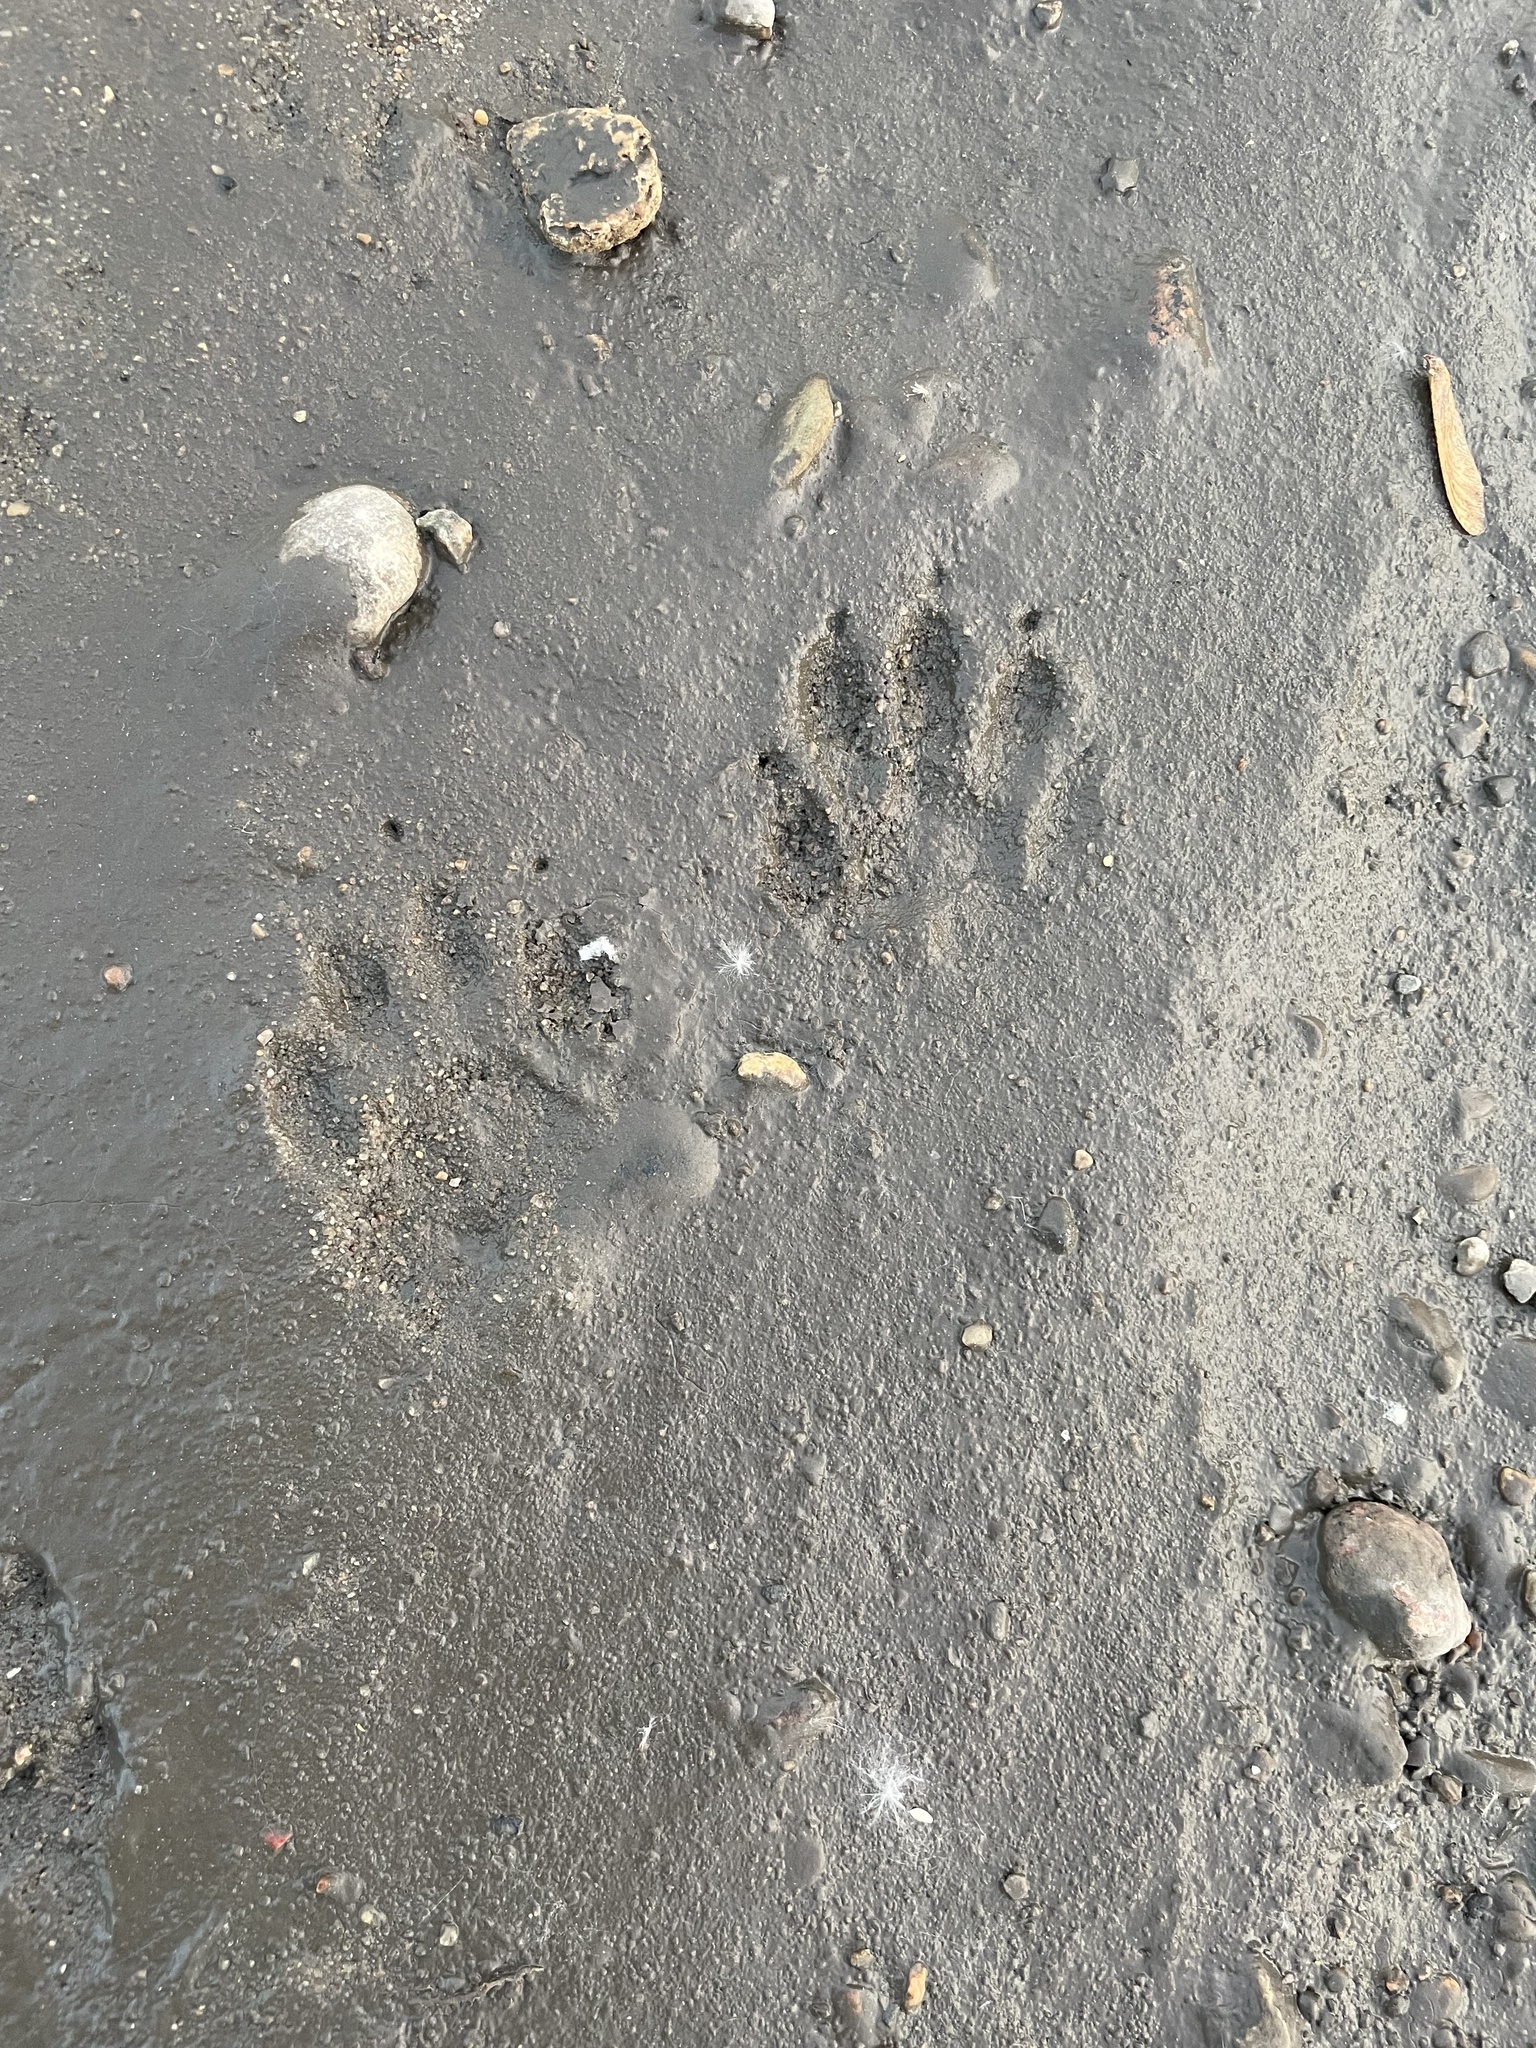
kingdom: Animalia
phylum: Chordata
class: Mammalia
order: Carnivora
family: Procyonidae
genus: Procyon
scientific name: Procyon lotor
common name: Raccoon
